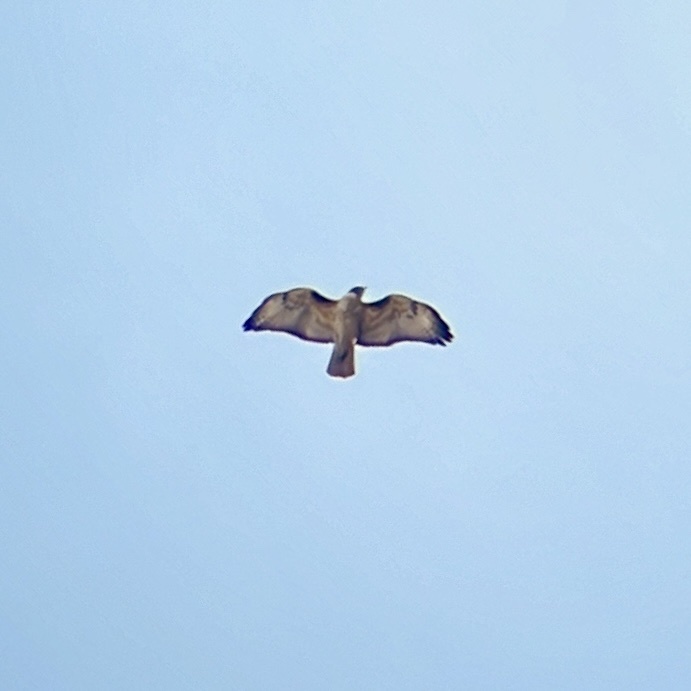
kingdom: Animalia
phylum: Chordata
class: Aves
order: Accipitriformes
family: Accipitridae
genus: Buteo
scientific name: Buteo jamaicensis
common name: Red-tailed hawk
